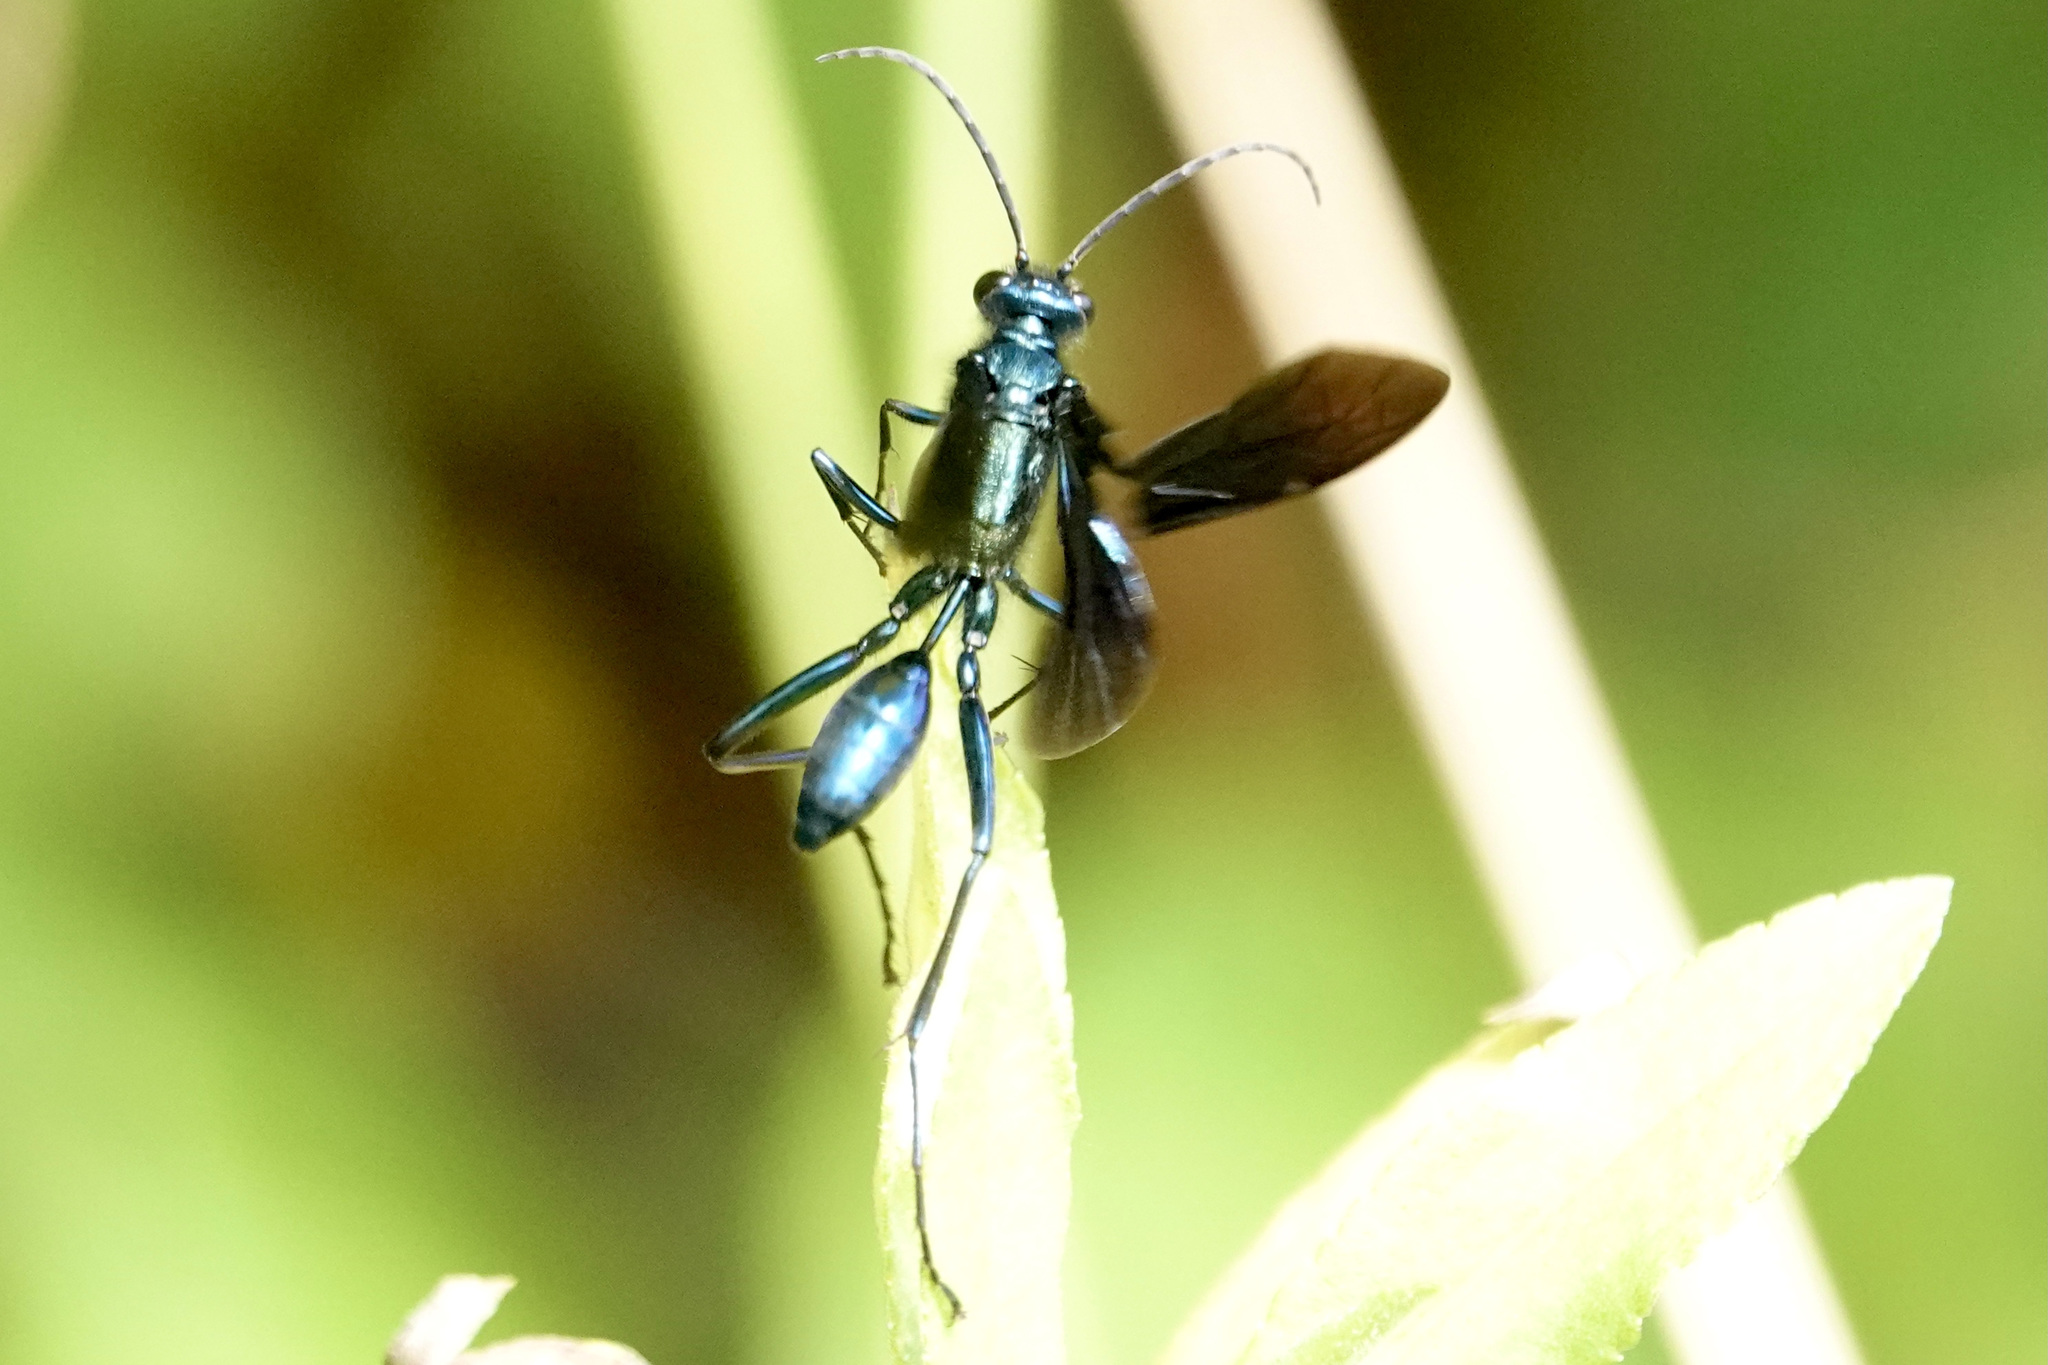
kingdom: Animalia
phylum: Arthropoda
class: Insecta
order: Hymenoptera
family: Sphecidae
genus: Chalybion
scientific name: Chalybion zimmermanni
